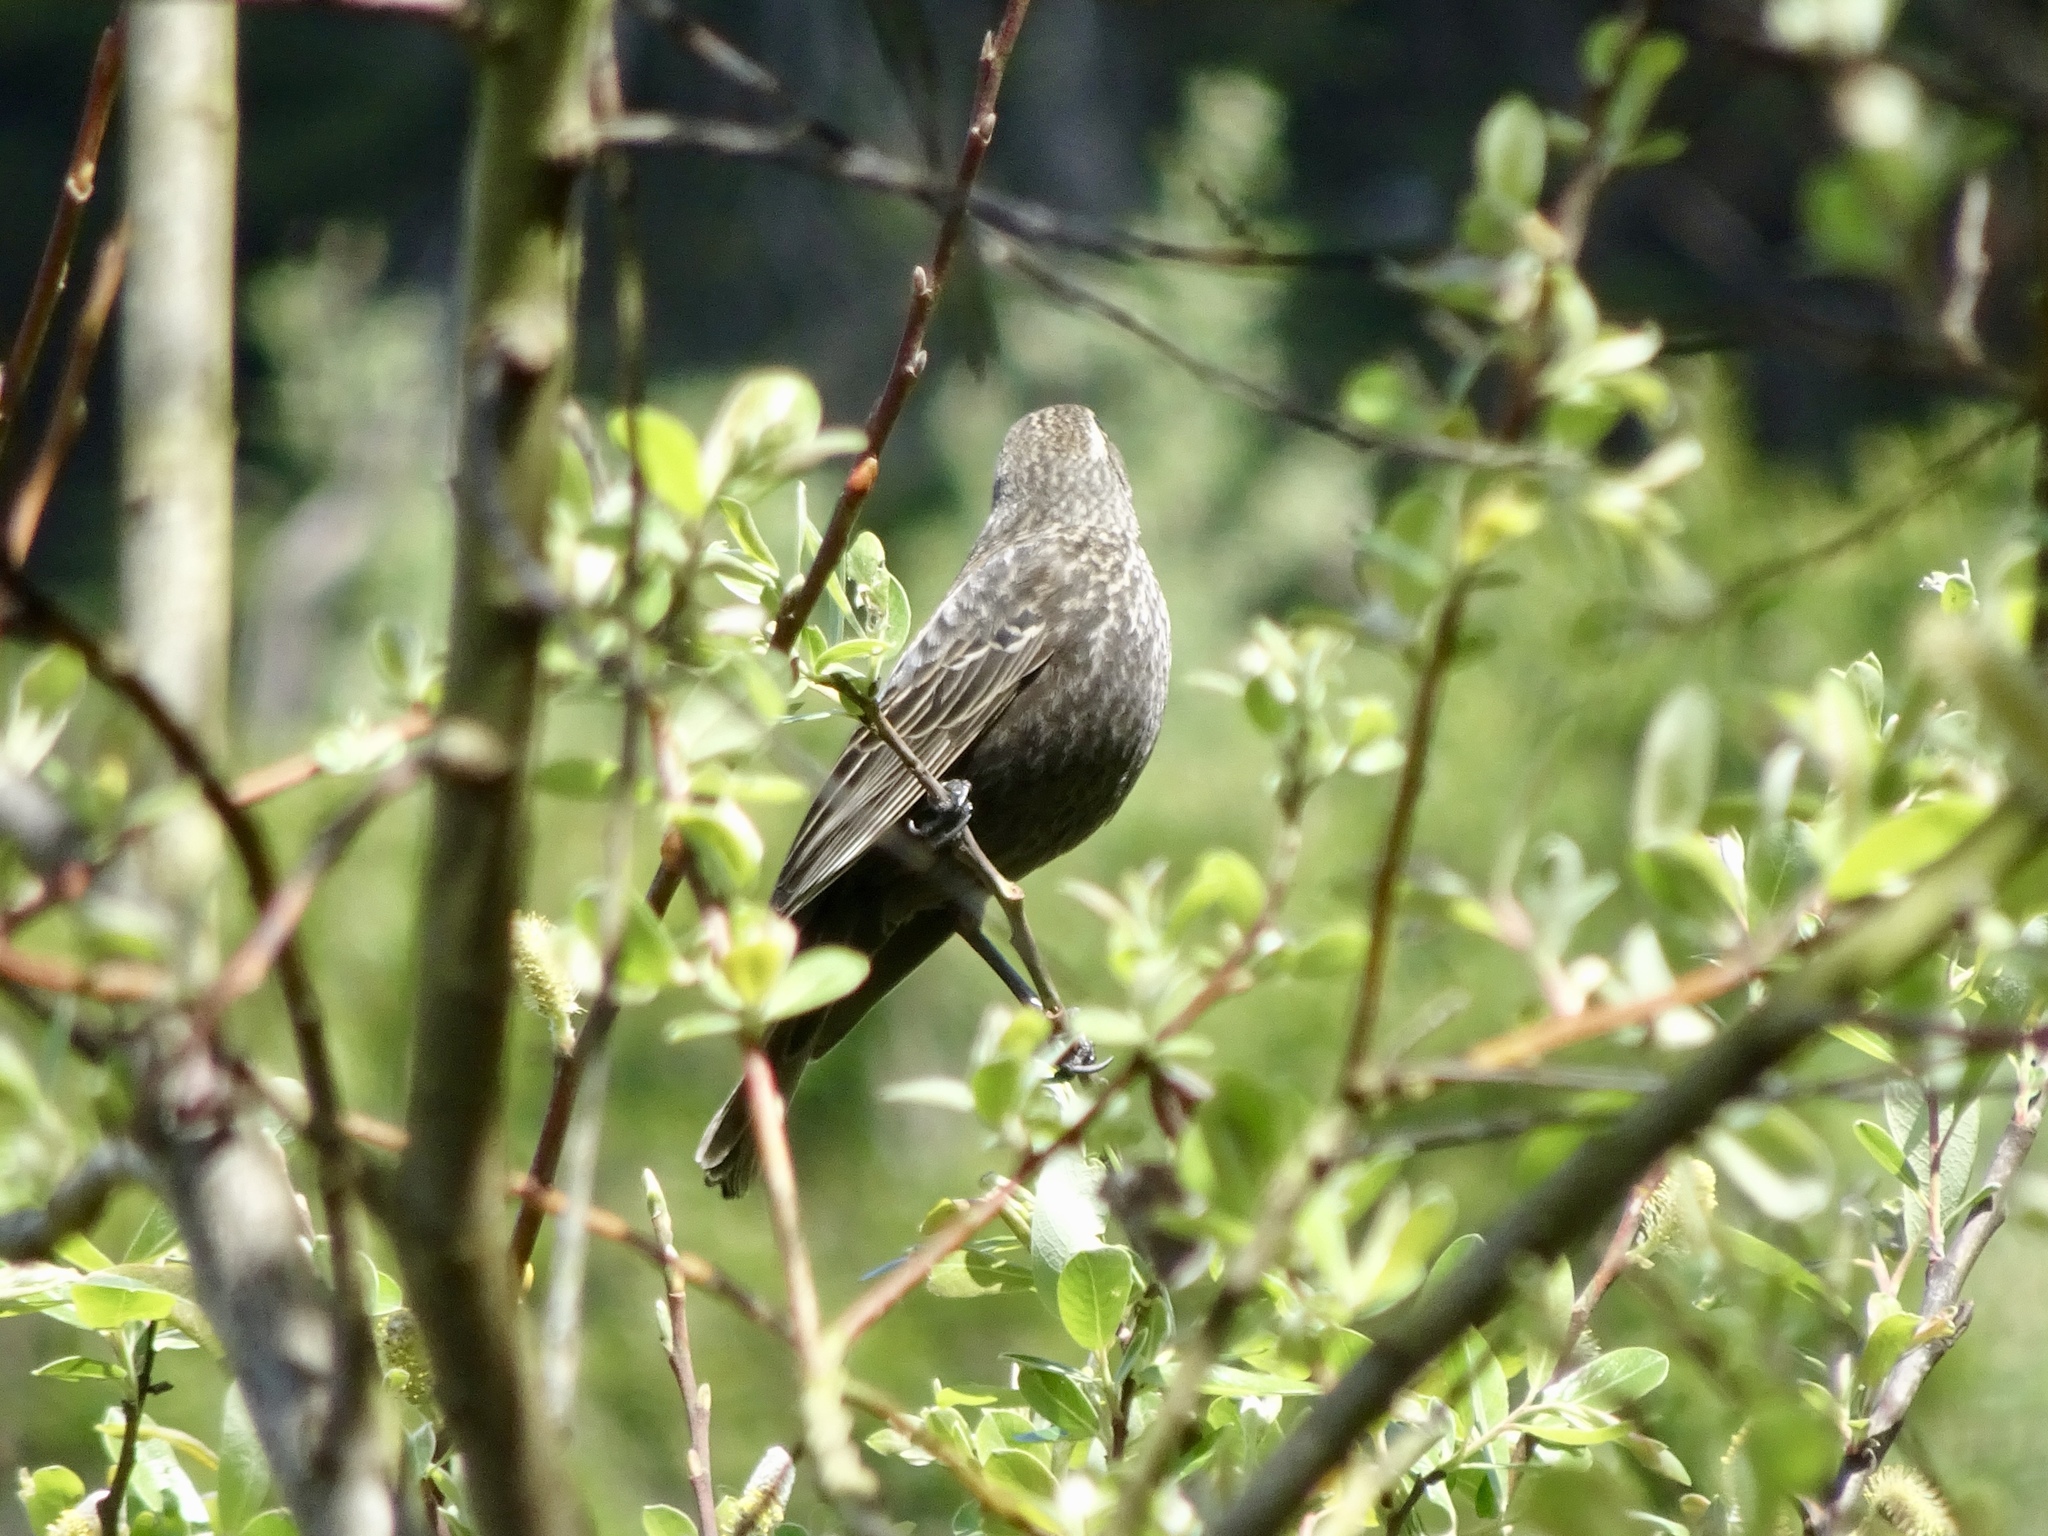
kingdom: Animalia
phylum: Chordata
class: Aves
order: Passeriformes
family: Icteridae
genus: Agelaius
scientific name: Agelaius phoeniceus
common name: Red-winged blackbird
